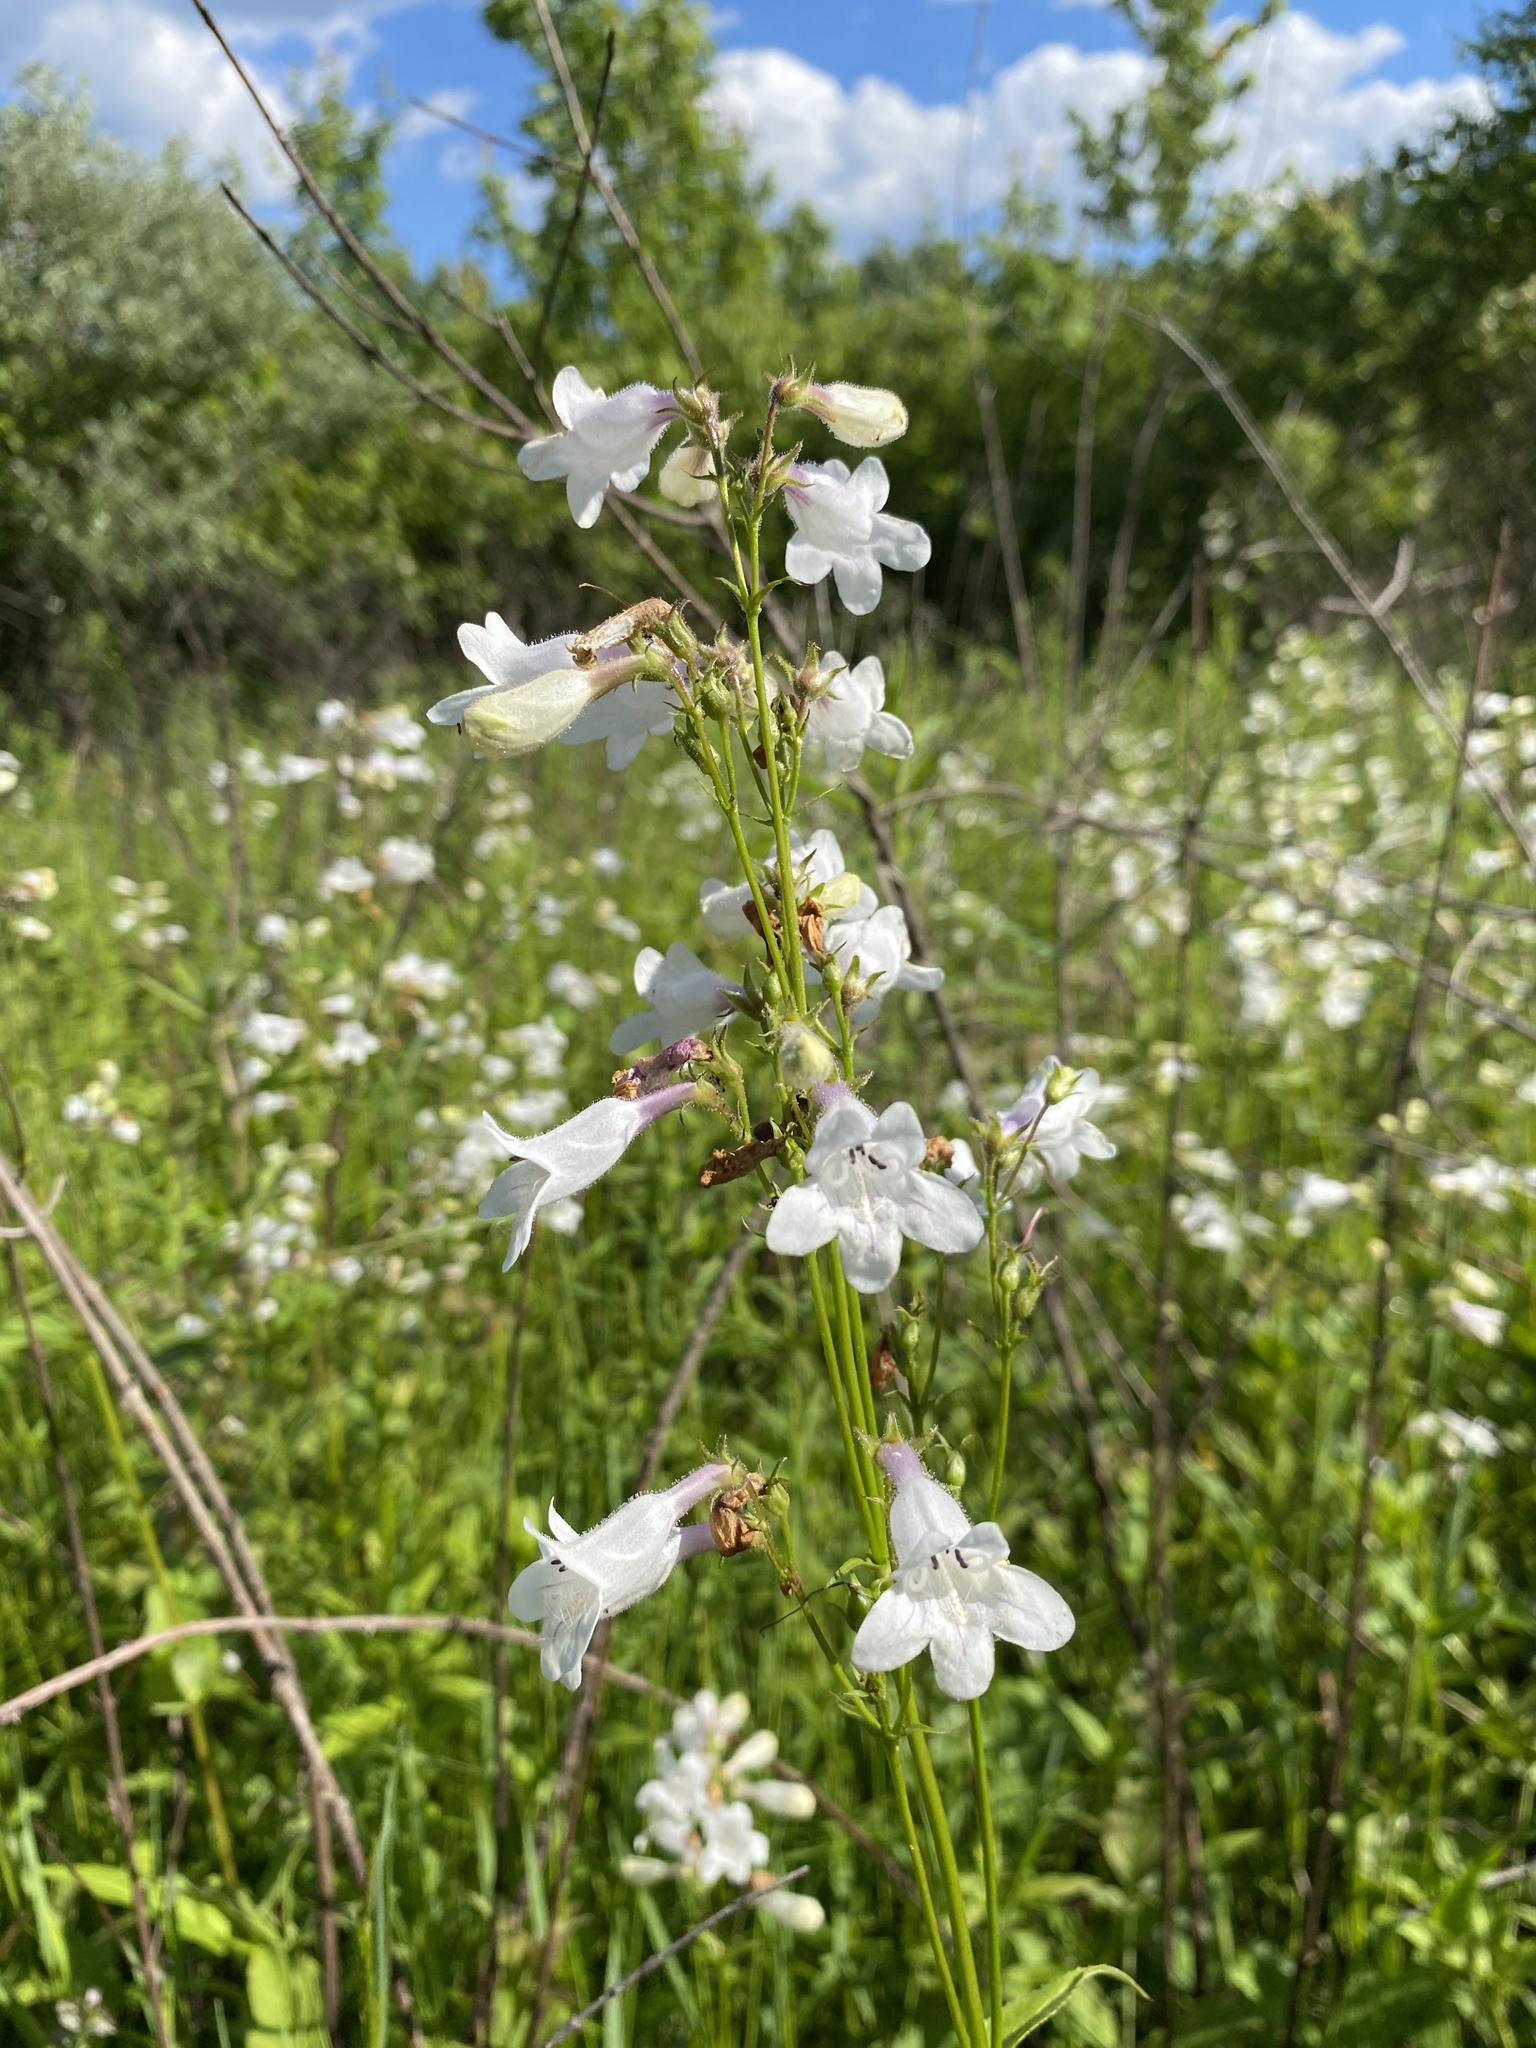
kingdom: Plantae
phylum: Tracheophyta
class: Magnoliopsida
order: Lamiales
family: Plantaginaceae
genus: Penstemon
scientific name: Penstemon digitalis
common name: Foxglove beardtongue
